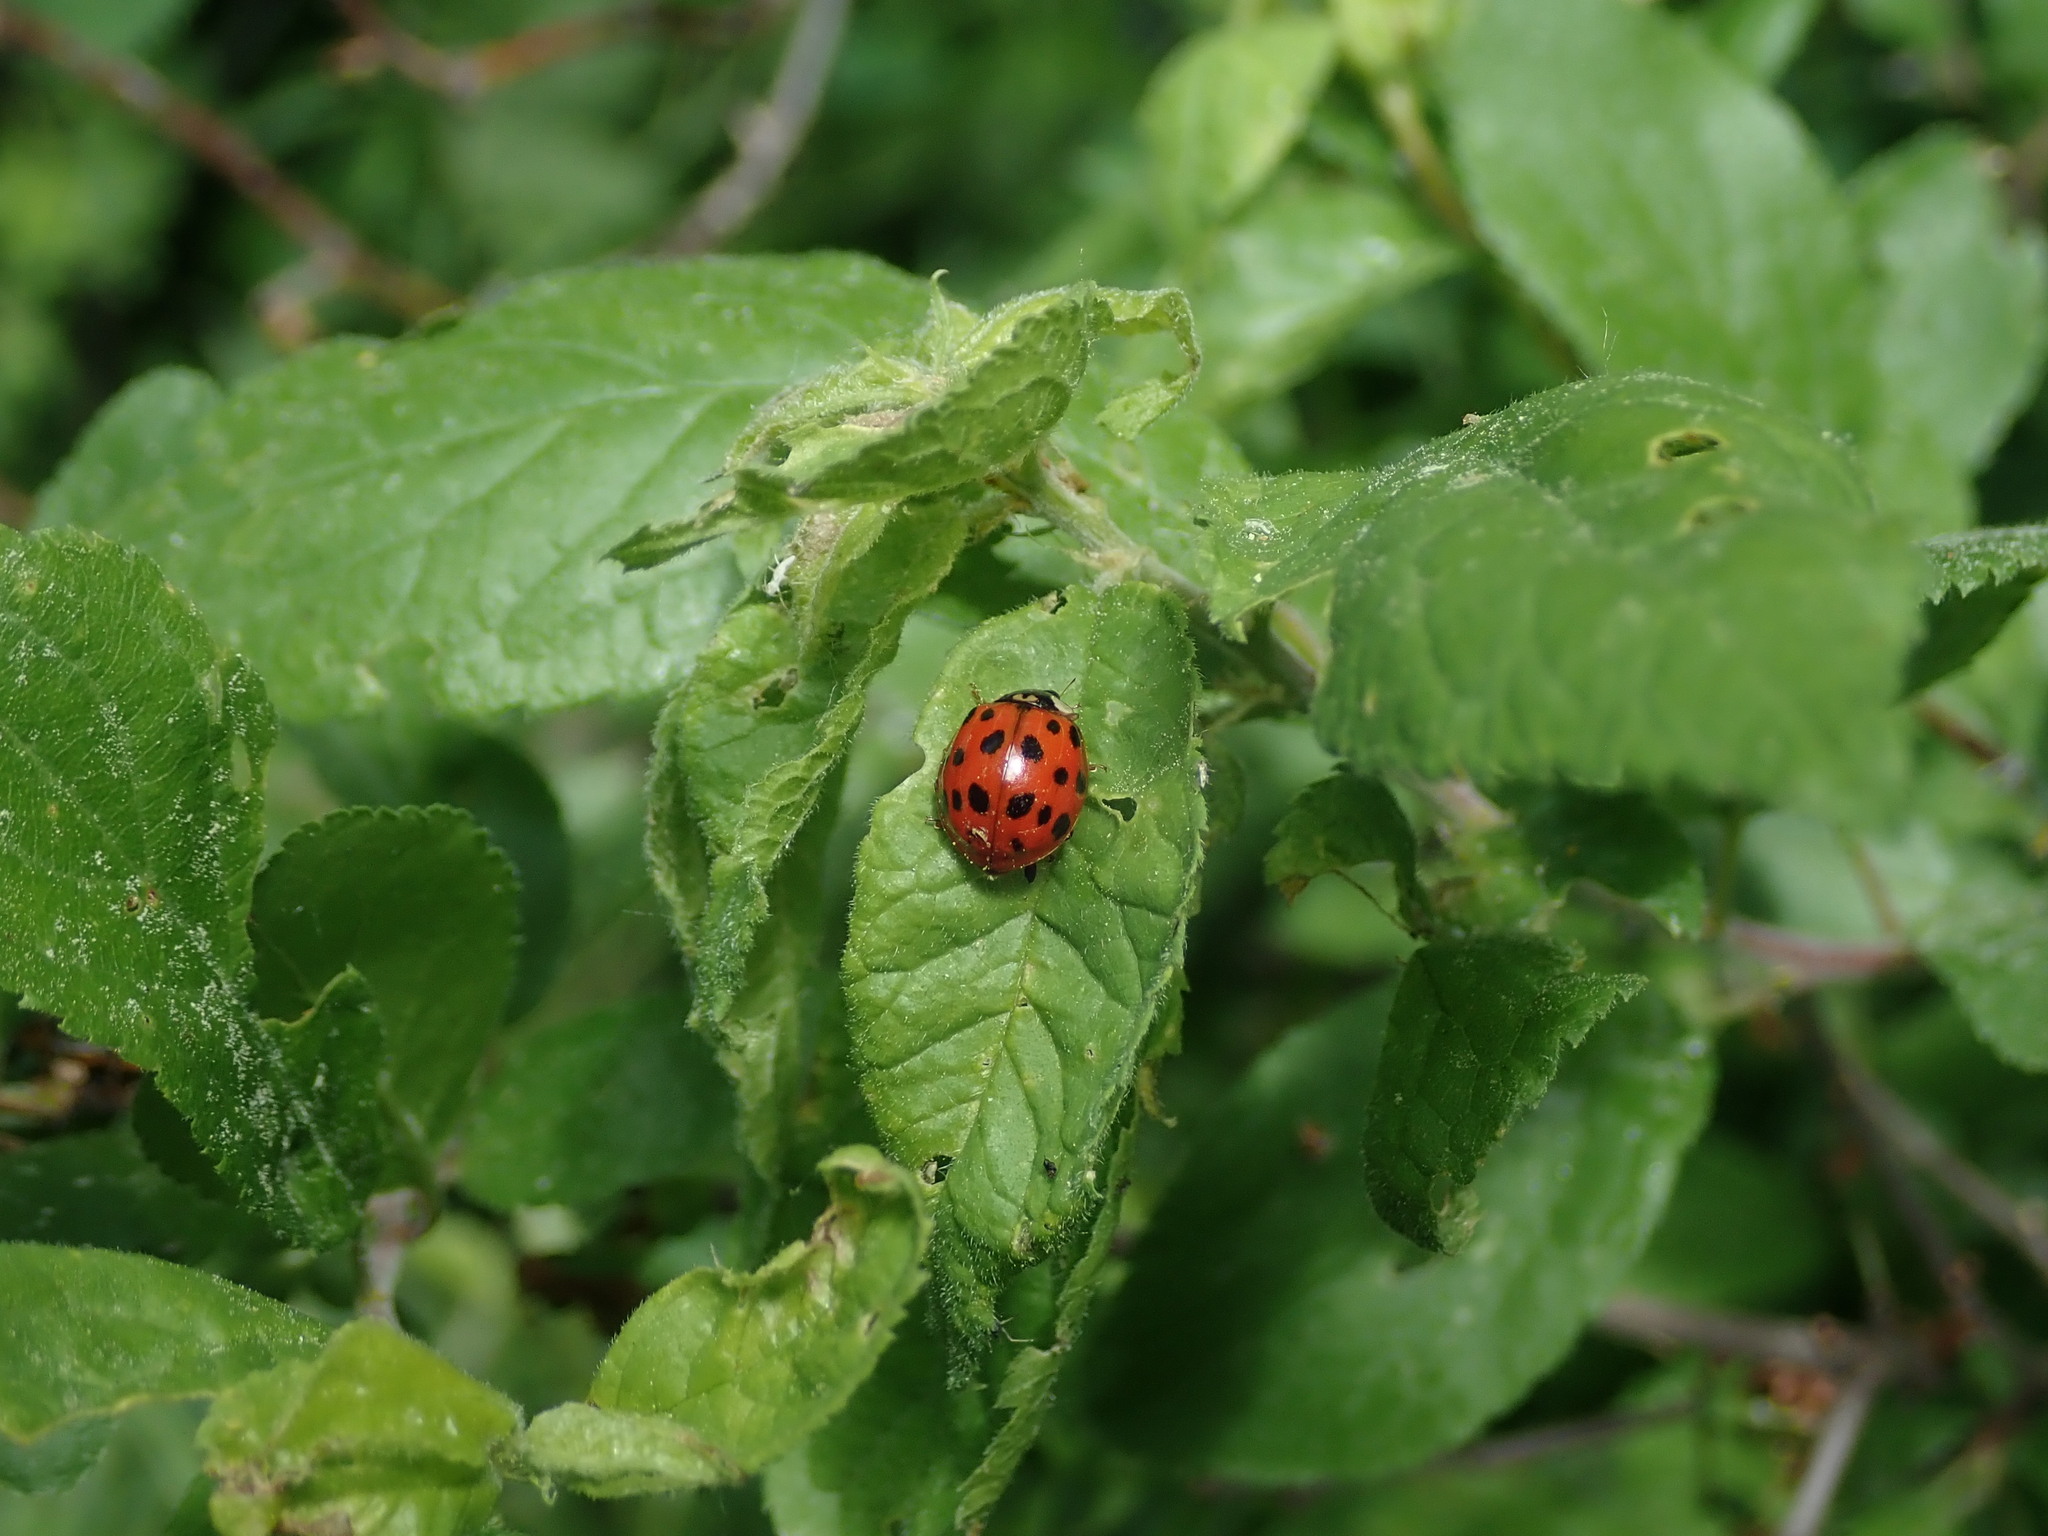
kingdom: Animalia
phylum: Arthropoda
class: Insecta
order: Coleoptera
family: Coccinellidae
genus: Harmonia
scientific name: Harmonia axyridis
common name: Harlequin ladybird
